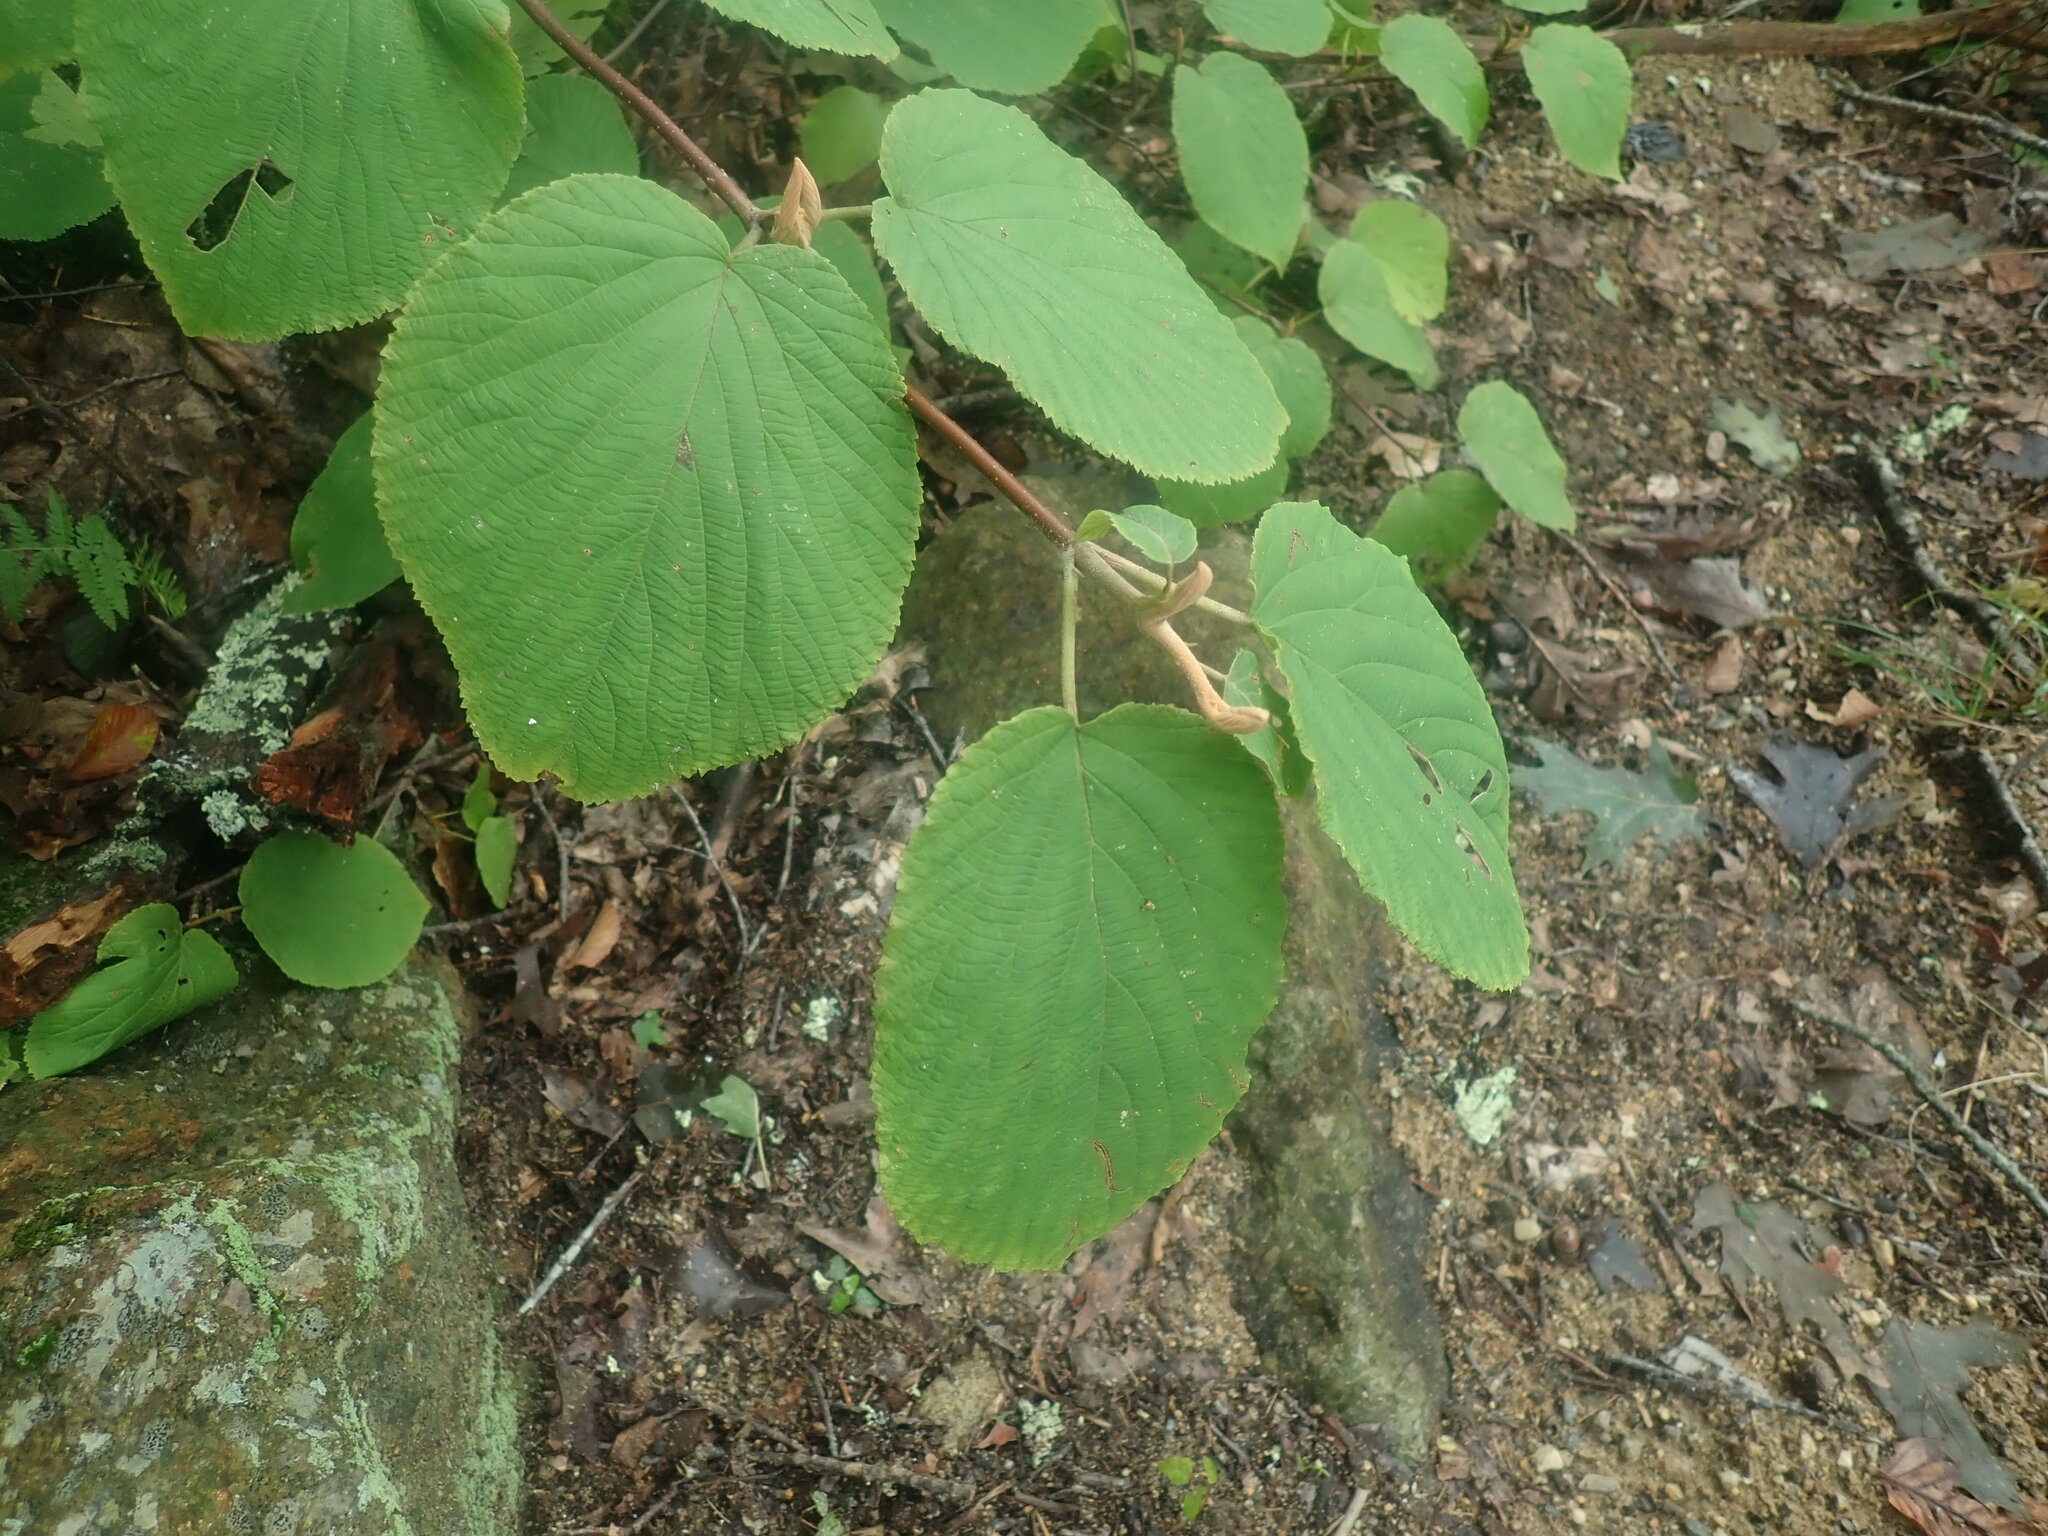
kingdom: Plantae
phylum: Tracheophyta
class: Magnoliopsida
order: Dipsacales
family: Viburnaceae
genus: Viburnum
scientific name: Viburnum lantanoides
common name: Hobblebush
